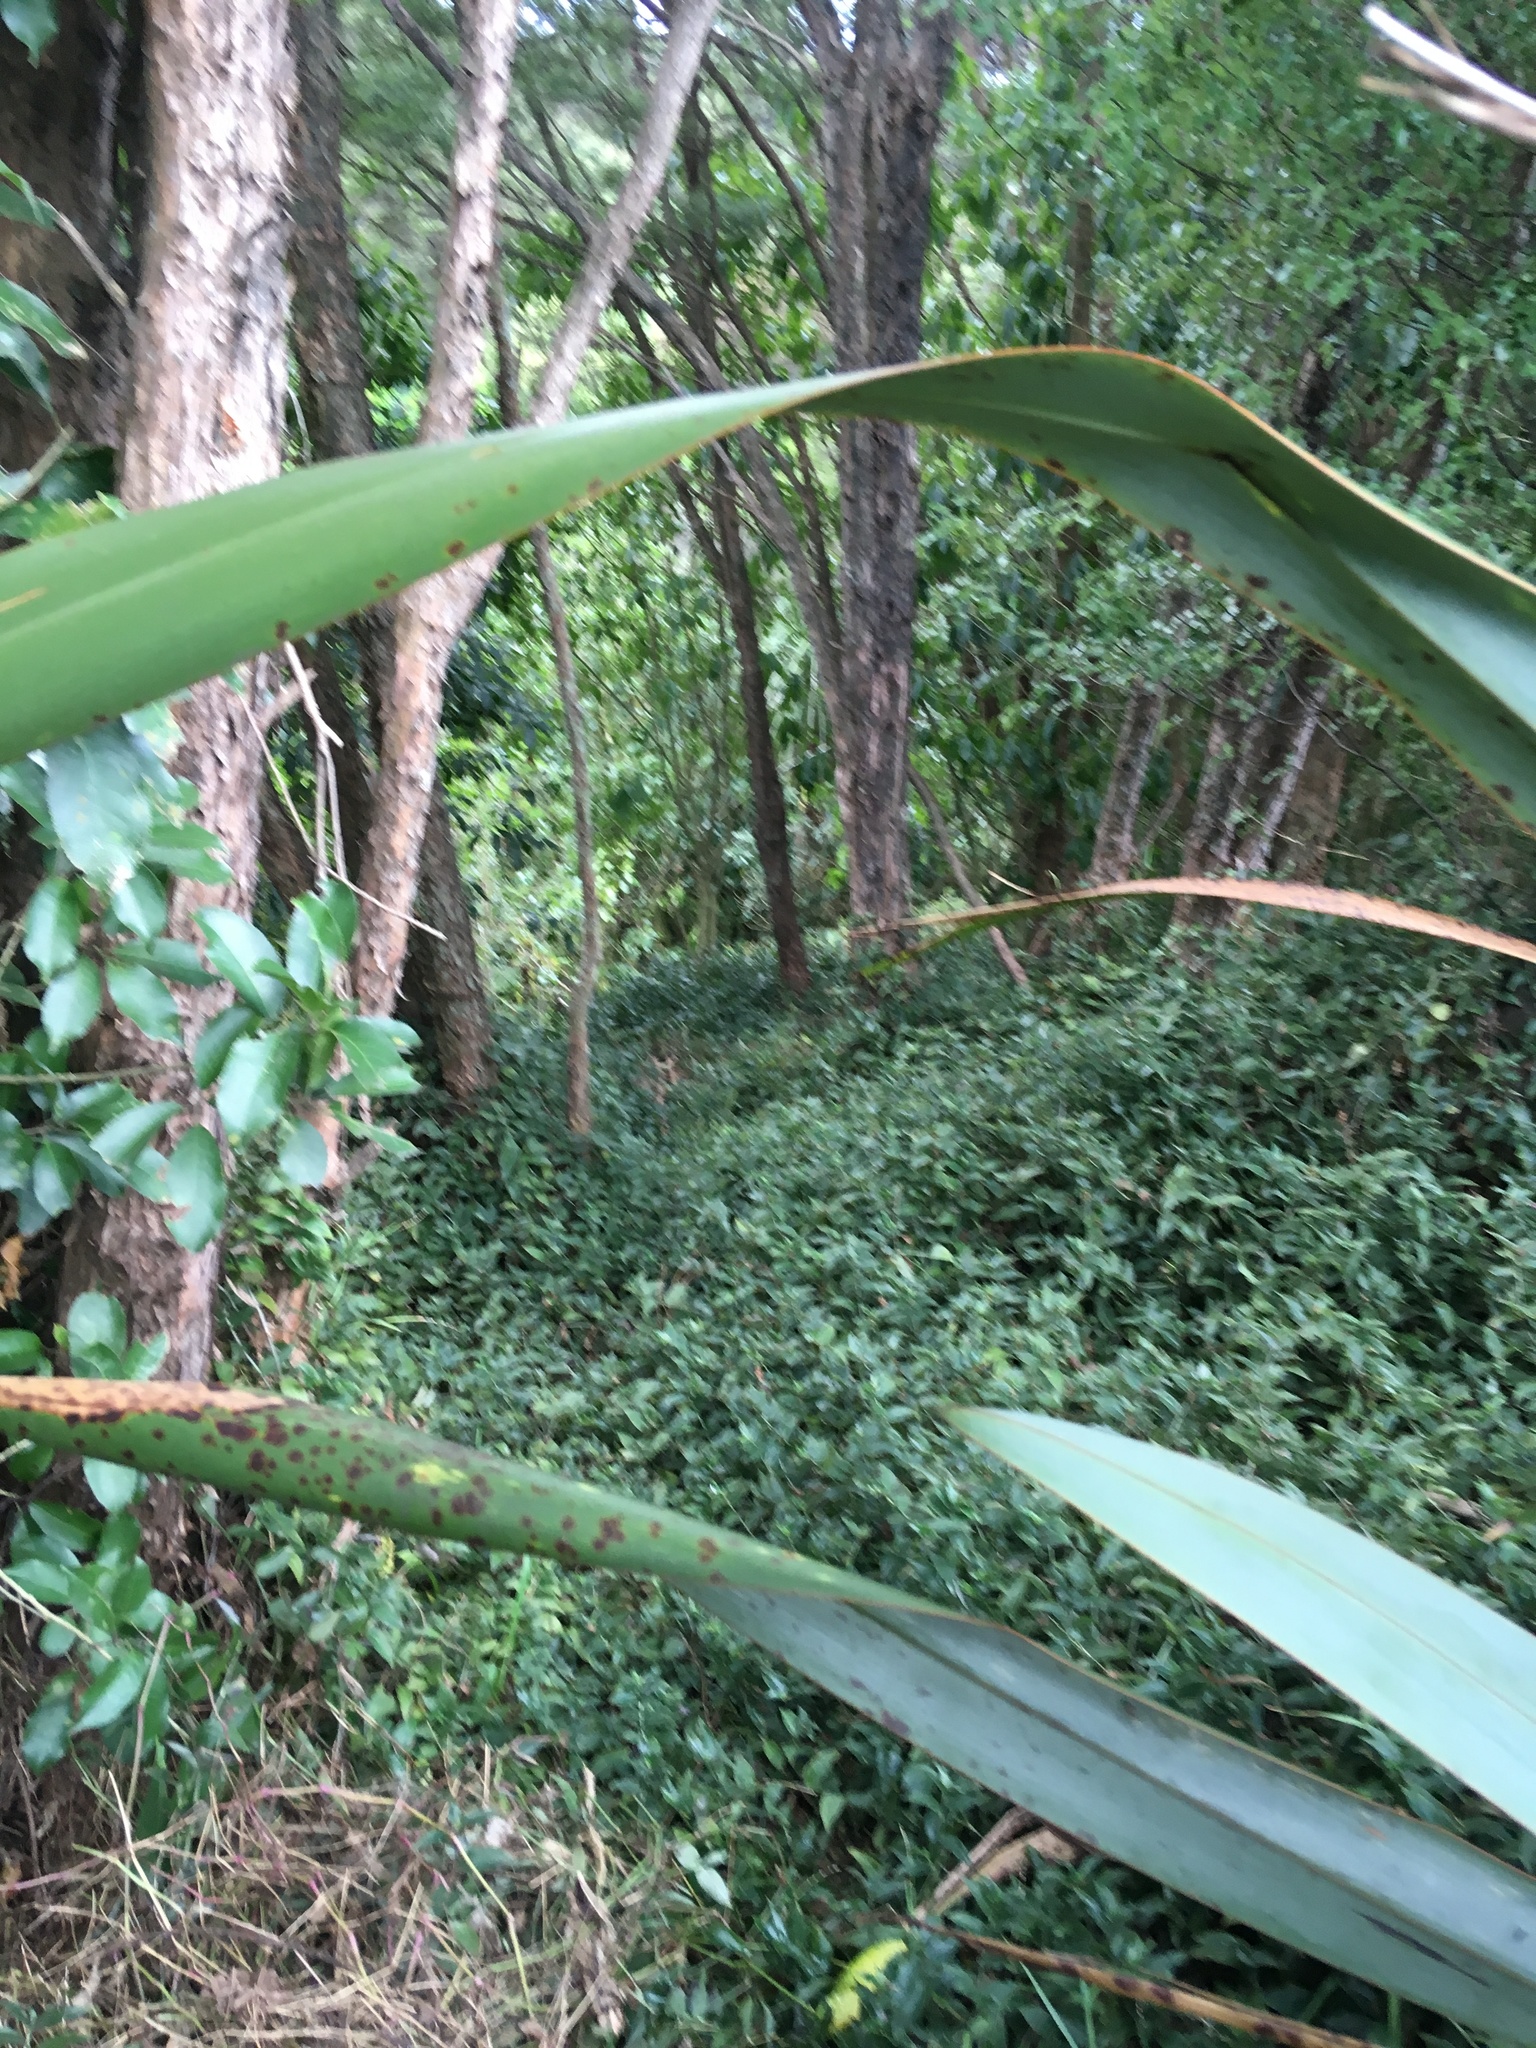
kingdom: Plantae
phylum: Tracheophyta
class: Liliopsida
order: Commelinales
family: Commelinaceae
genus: Tradescantia
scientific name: Tradescantia fluminensis
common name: Wandering-jew
